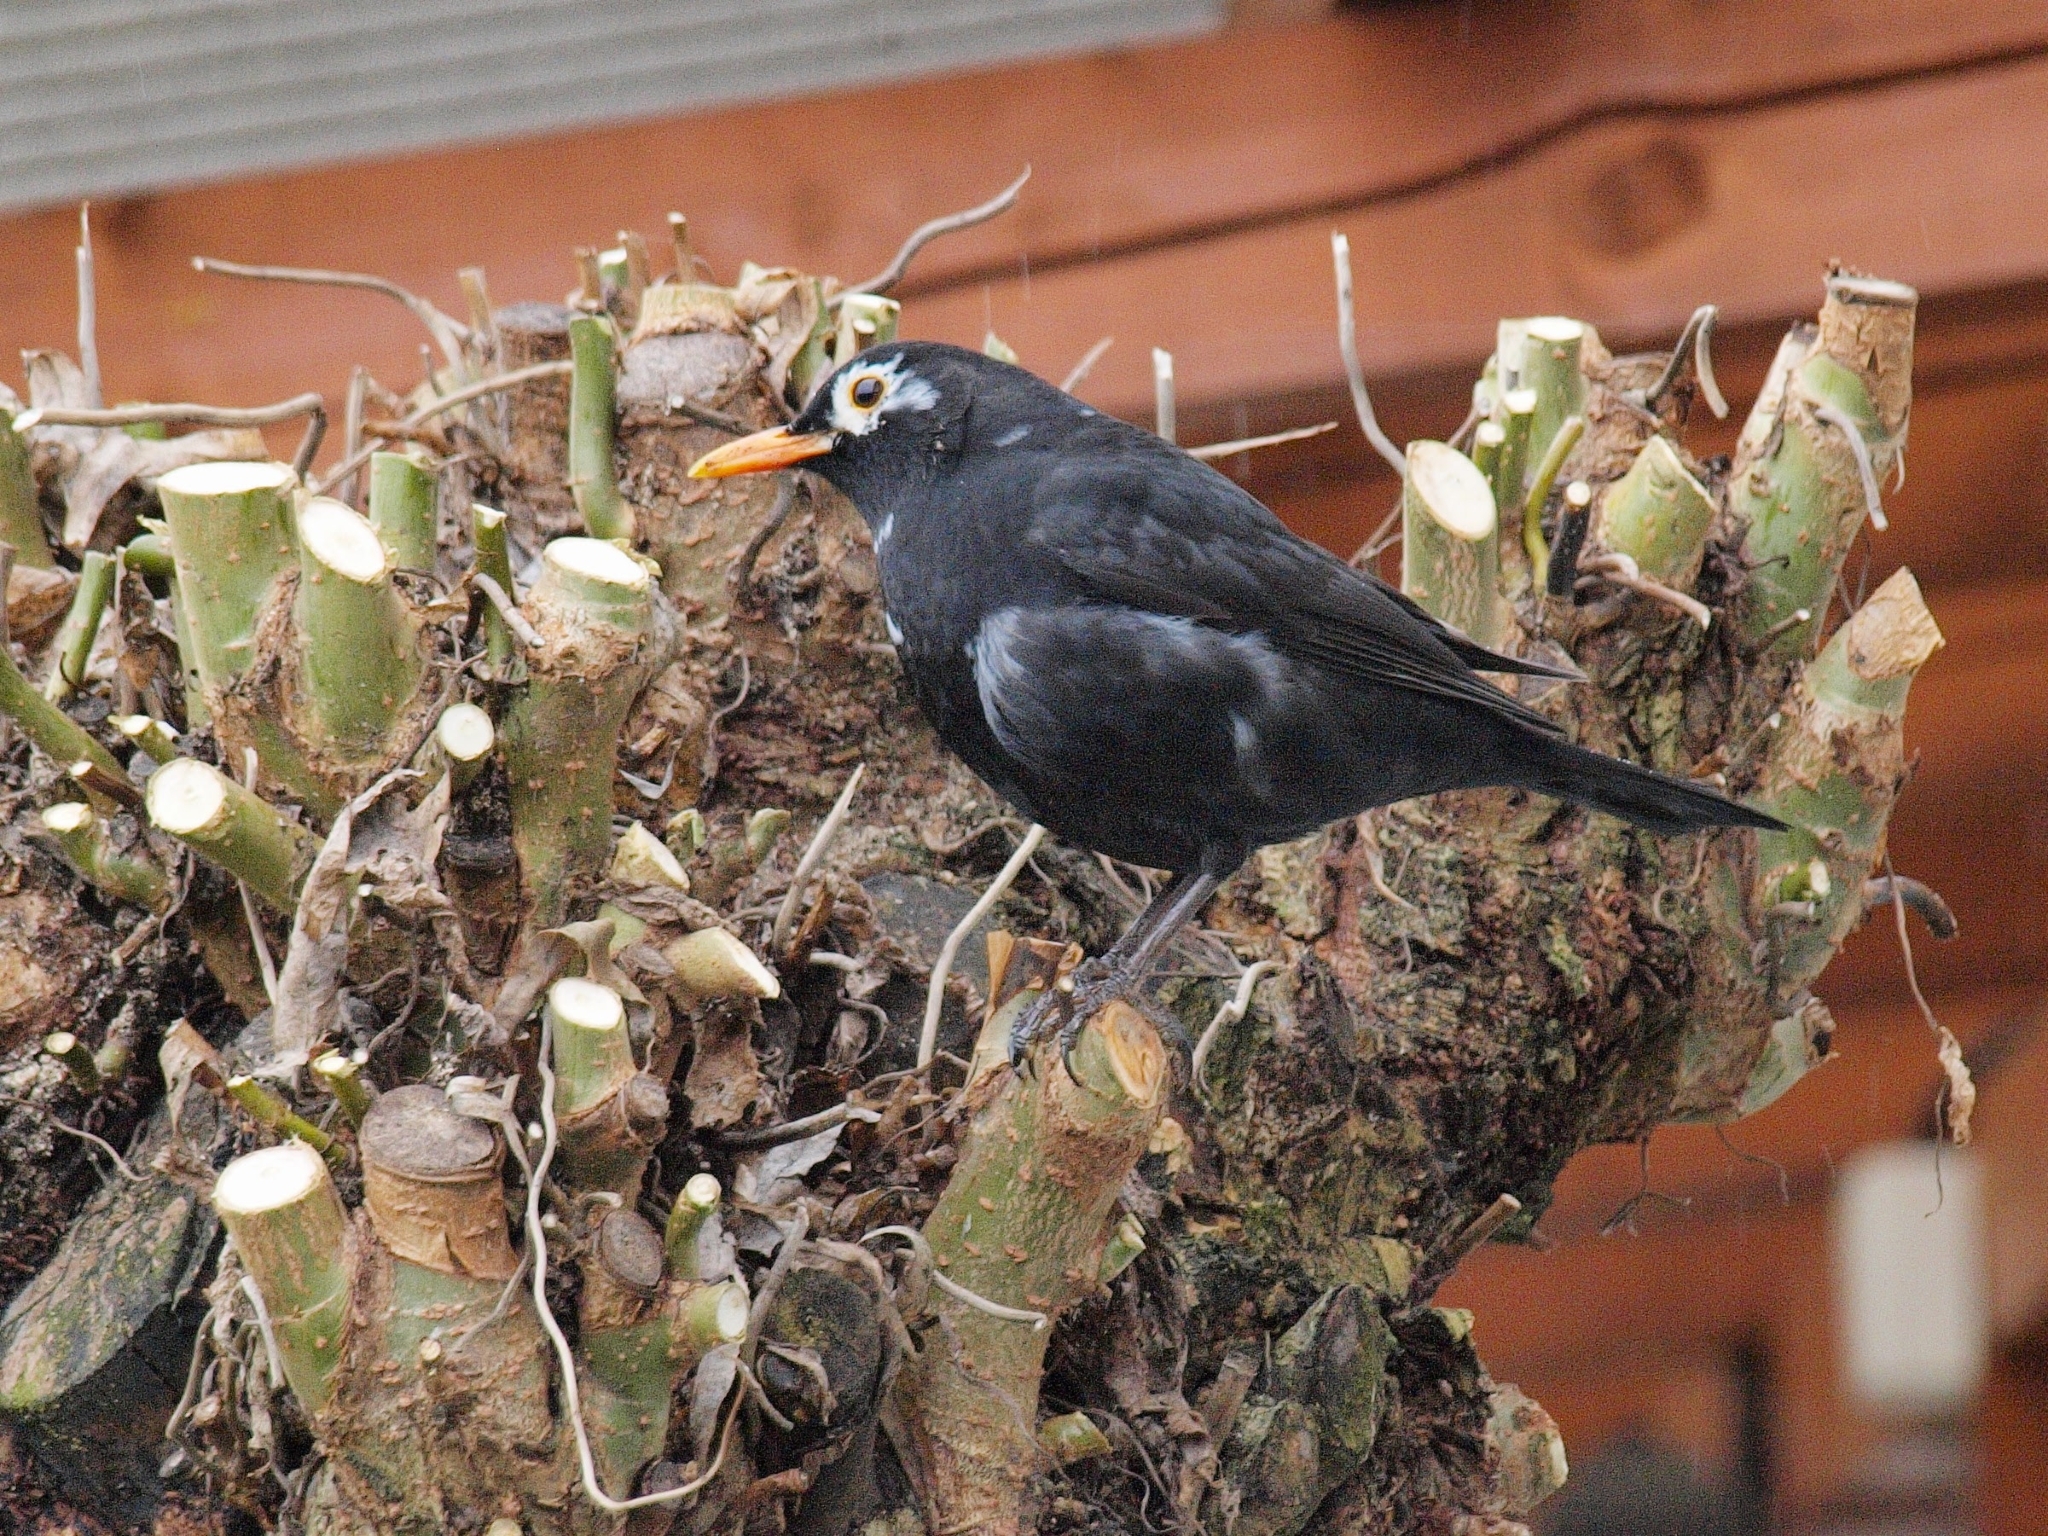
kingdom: Animalia
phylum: Chordata
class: Aves
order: Passeriformes
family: Turdidae
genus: Turdus
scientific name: Turdus merula
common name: Common blackbird
